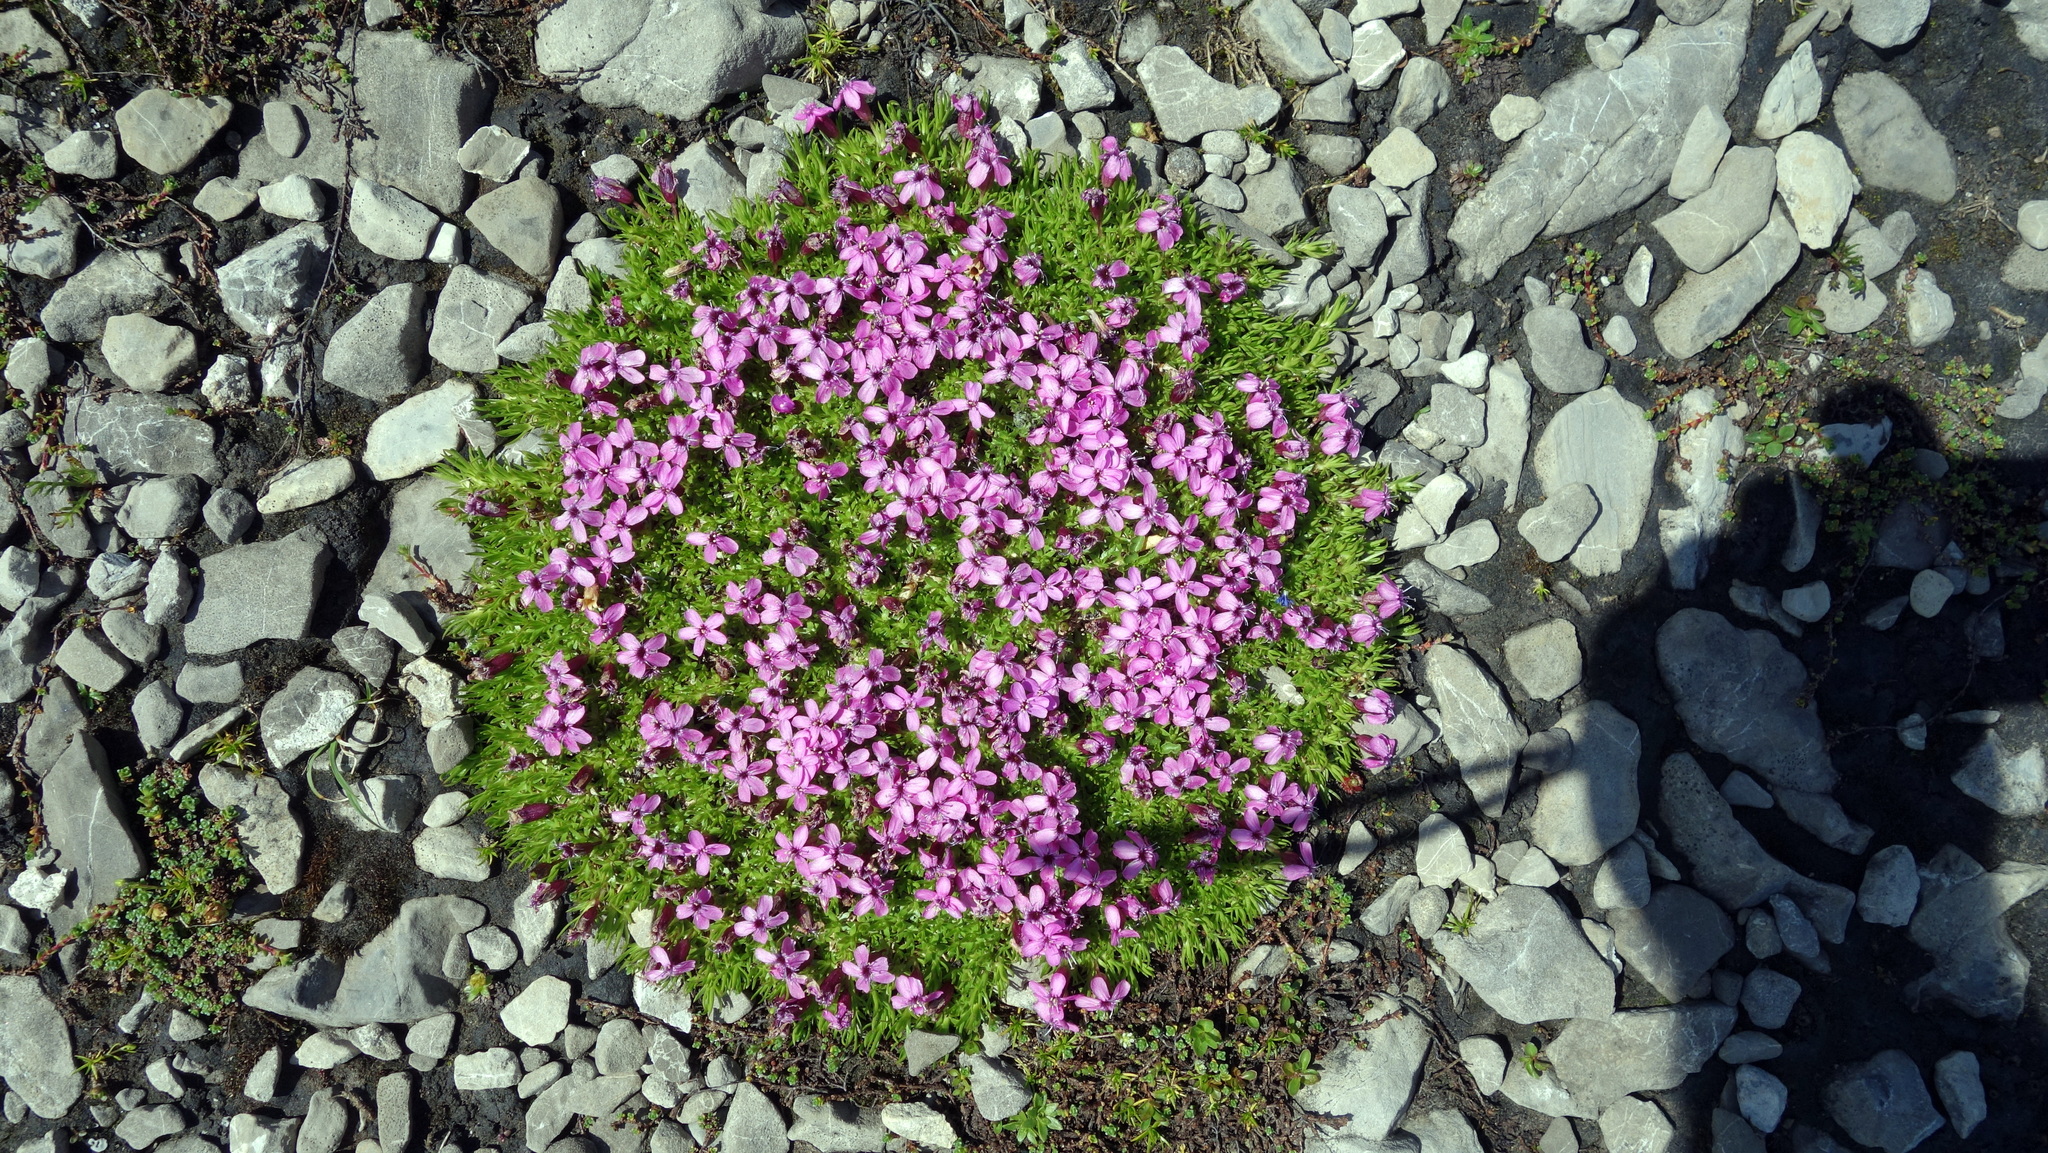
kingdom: Plantae
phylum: Tracheophyta
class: Magnoliopsida
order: Caryophyllales
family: Caryophyllaceae
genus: Silene
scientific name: Silene acaulis
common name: Moss campion
